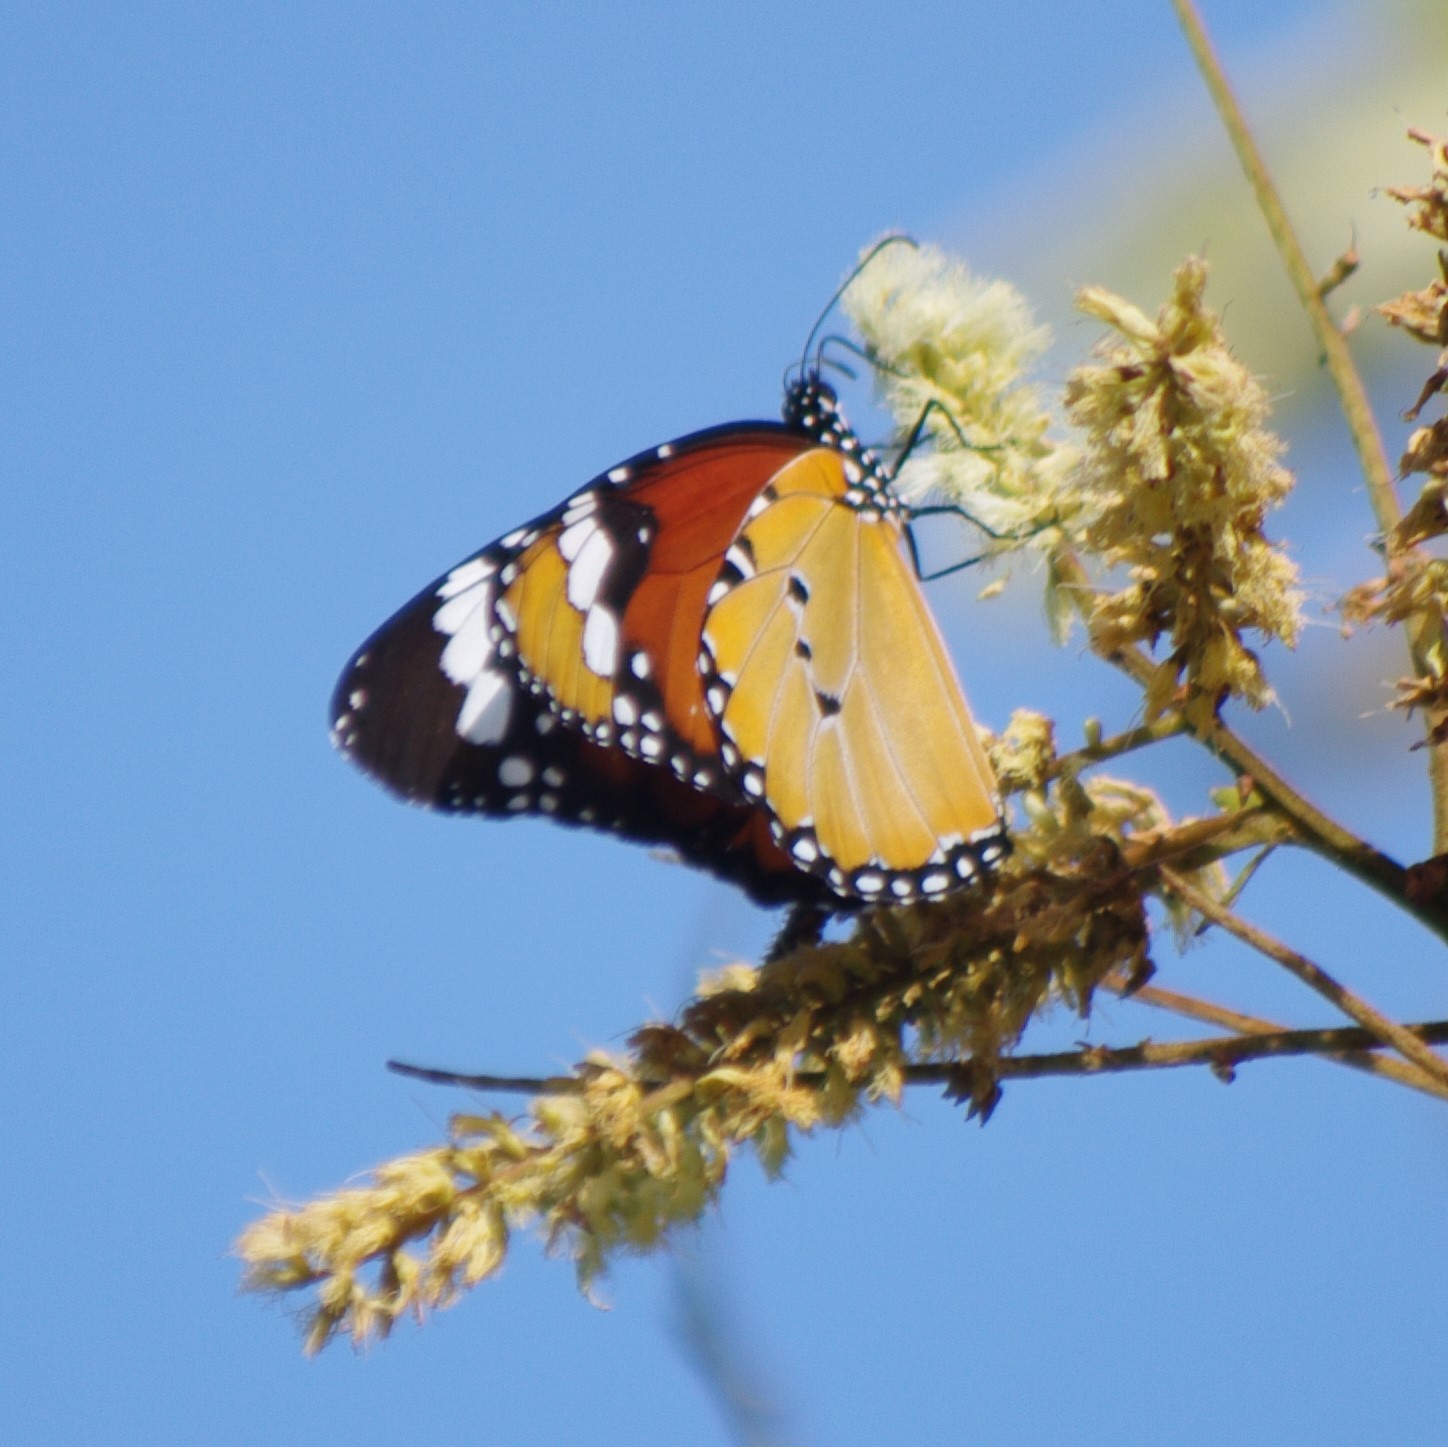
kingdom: Animalia
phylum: Arthropoda
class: Insecta
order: Lepidoptera
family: Nymphalidae
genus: Danaus
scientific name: Danaus chrysippus
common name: Plain tiger
